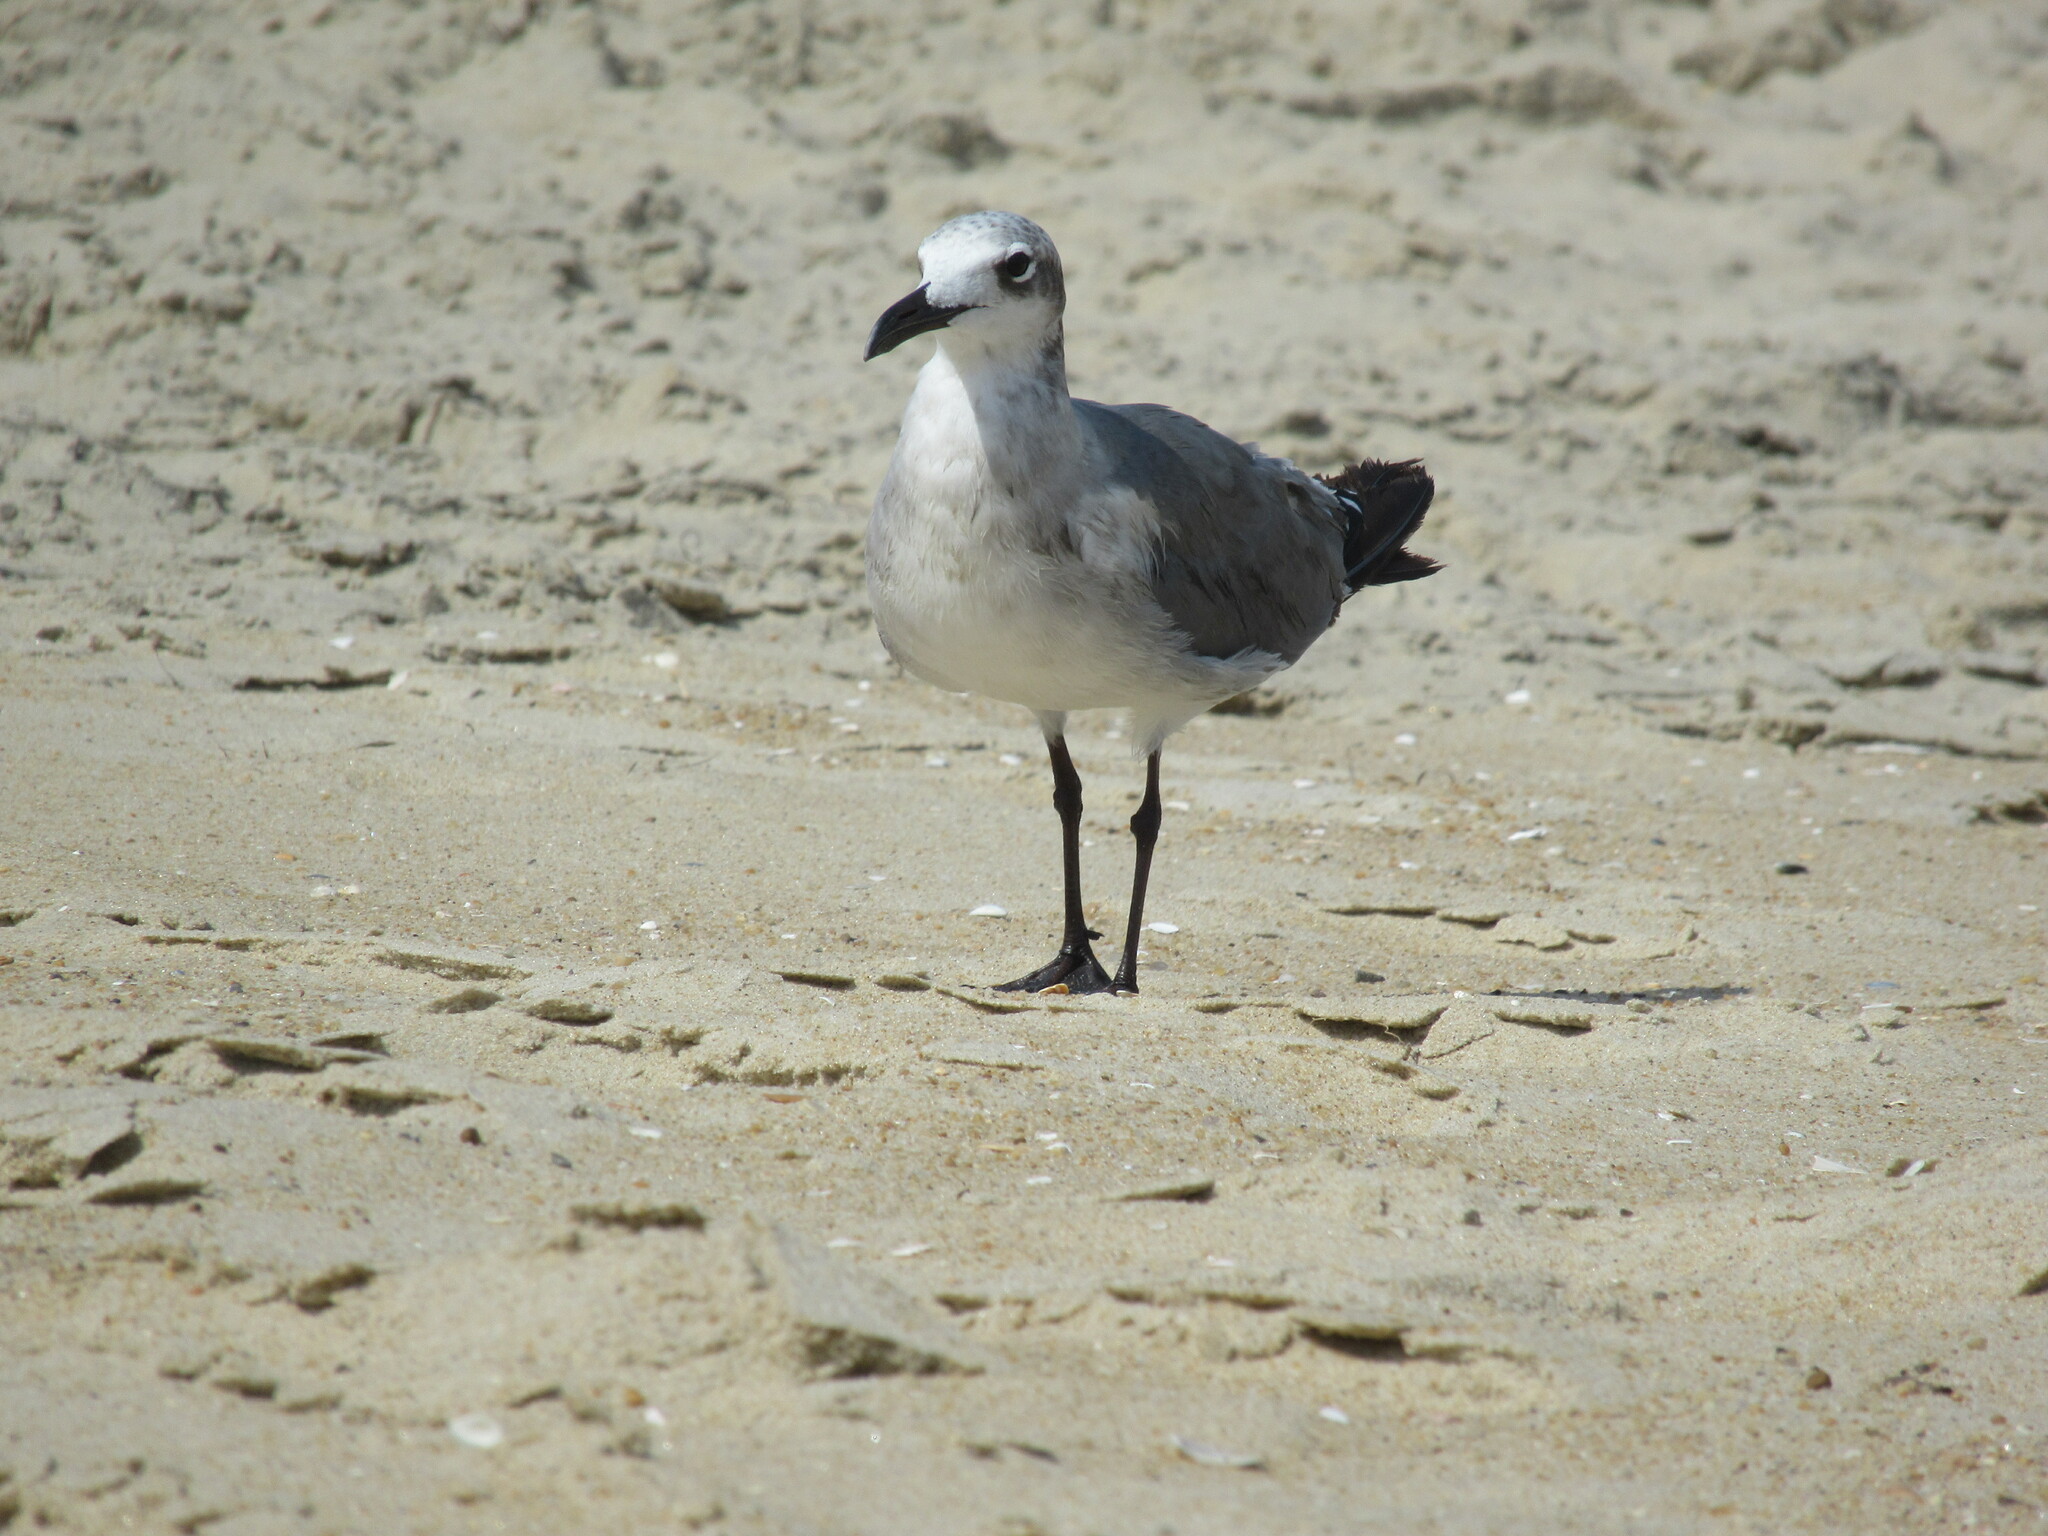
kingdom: Animalia
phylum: Chordata
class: Aves
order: Charadriiformes
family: Laridae
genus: Leucophaeus
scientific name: Leucophaeus atricilla
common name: Laughing gull
